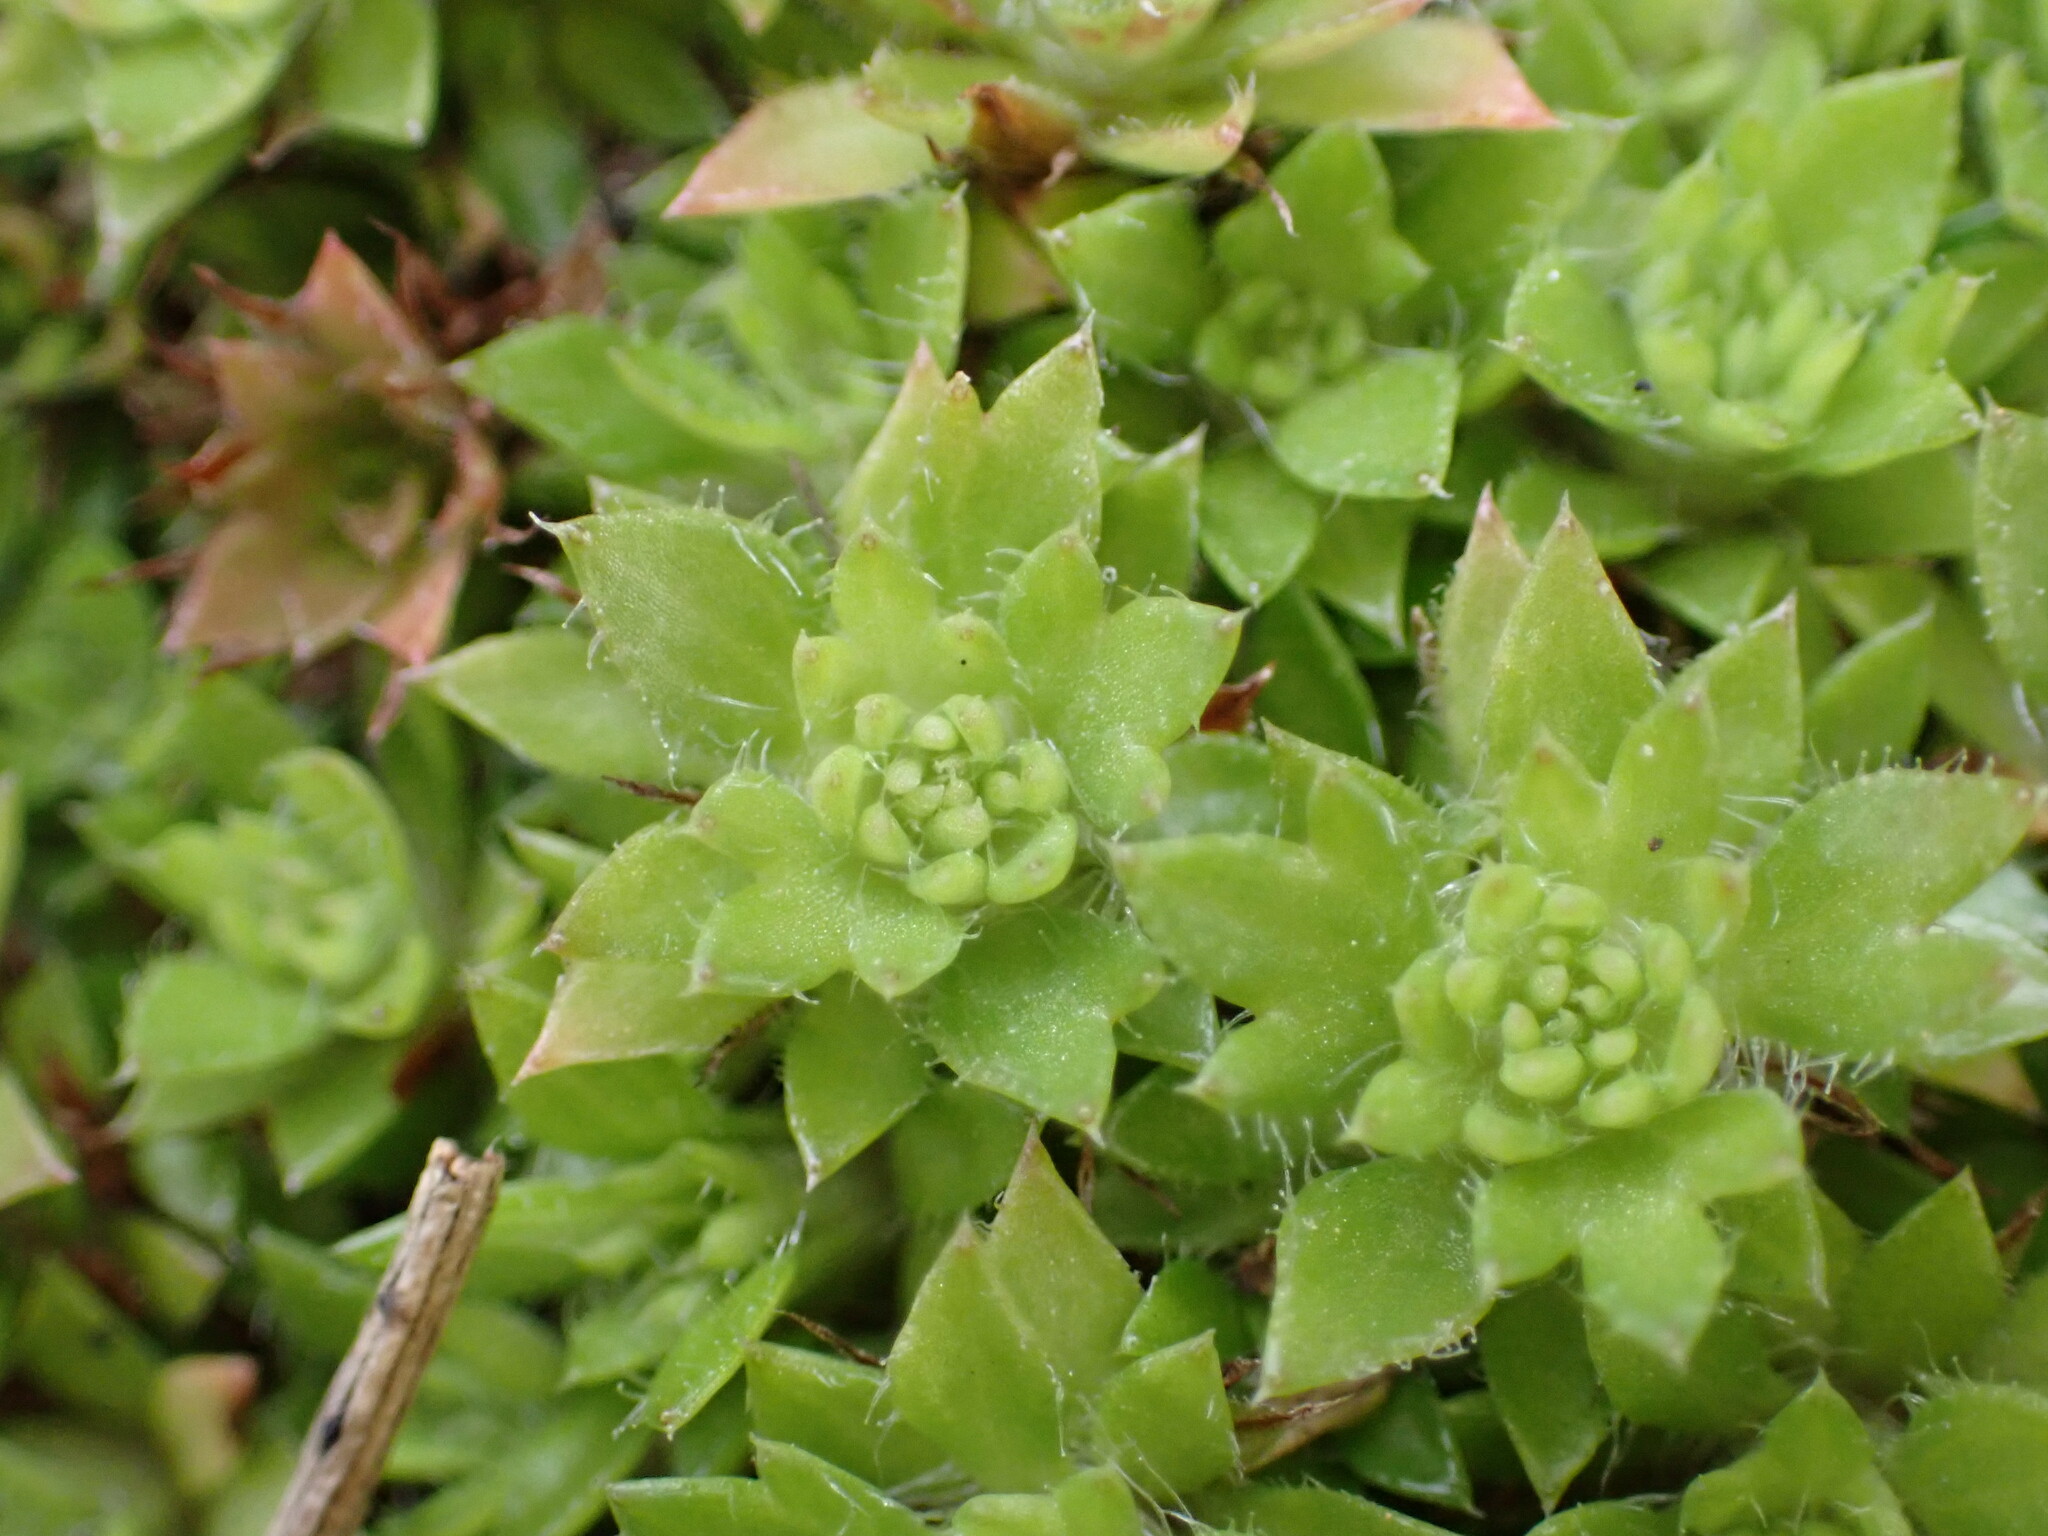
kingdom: Plantae
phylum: Tracheophyta
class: Magnoliopsida
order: Saxifragales
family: Saxifragaceae
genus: Saxifraga
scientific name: Saxifraga fragosoi
